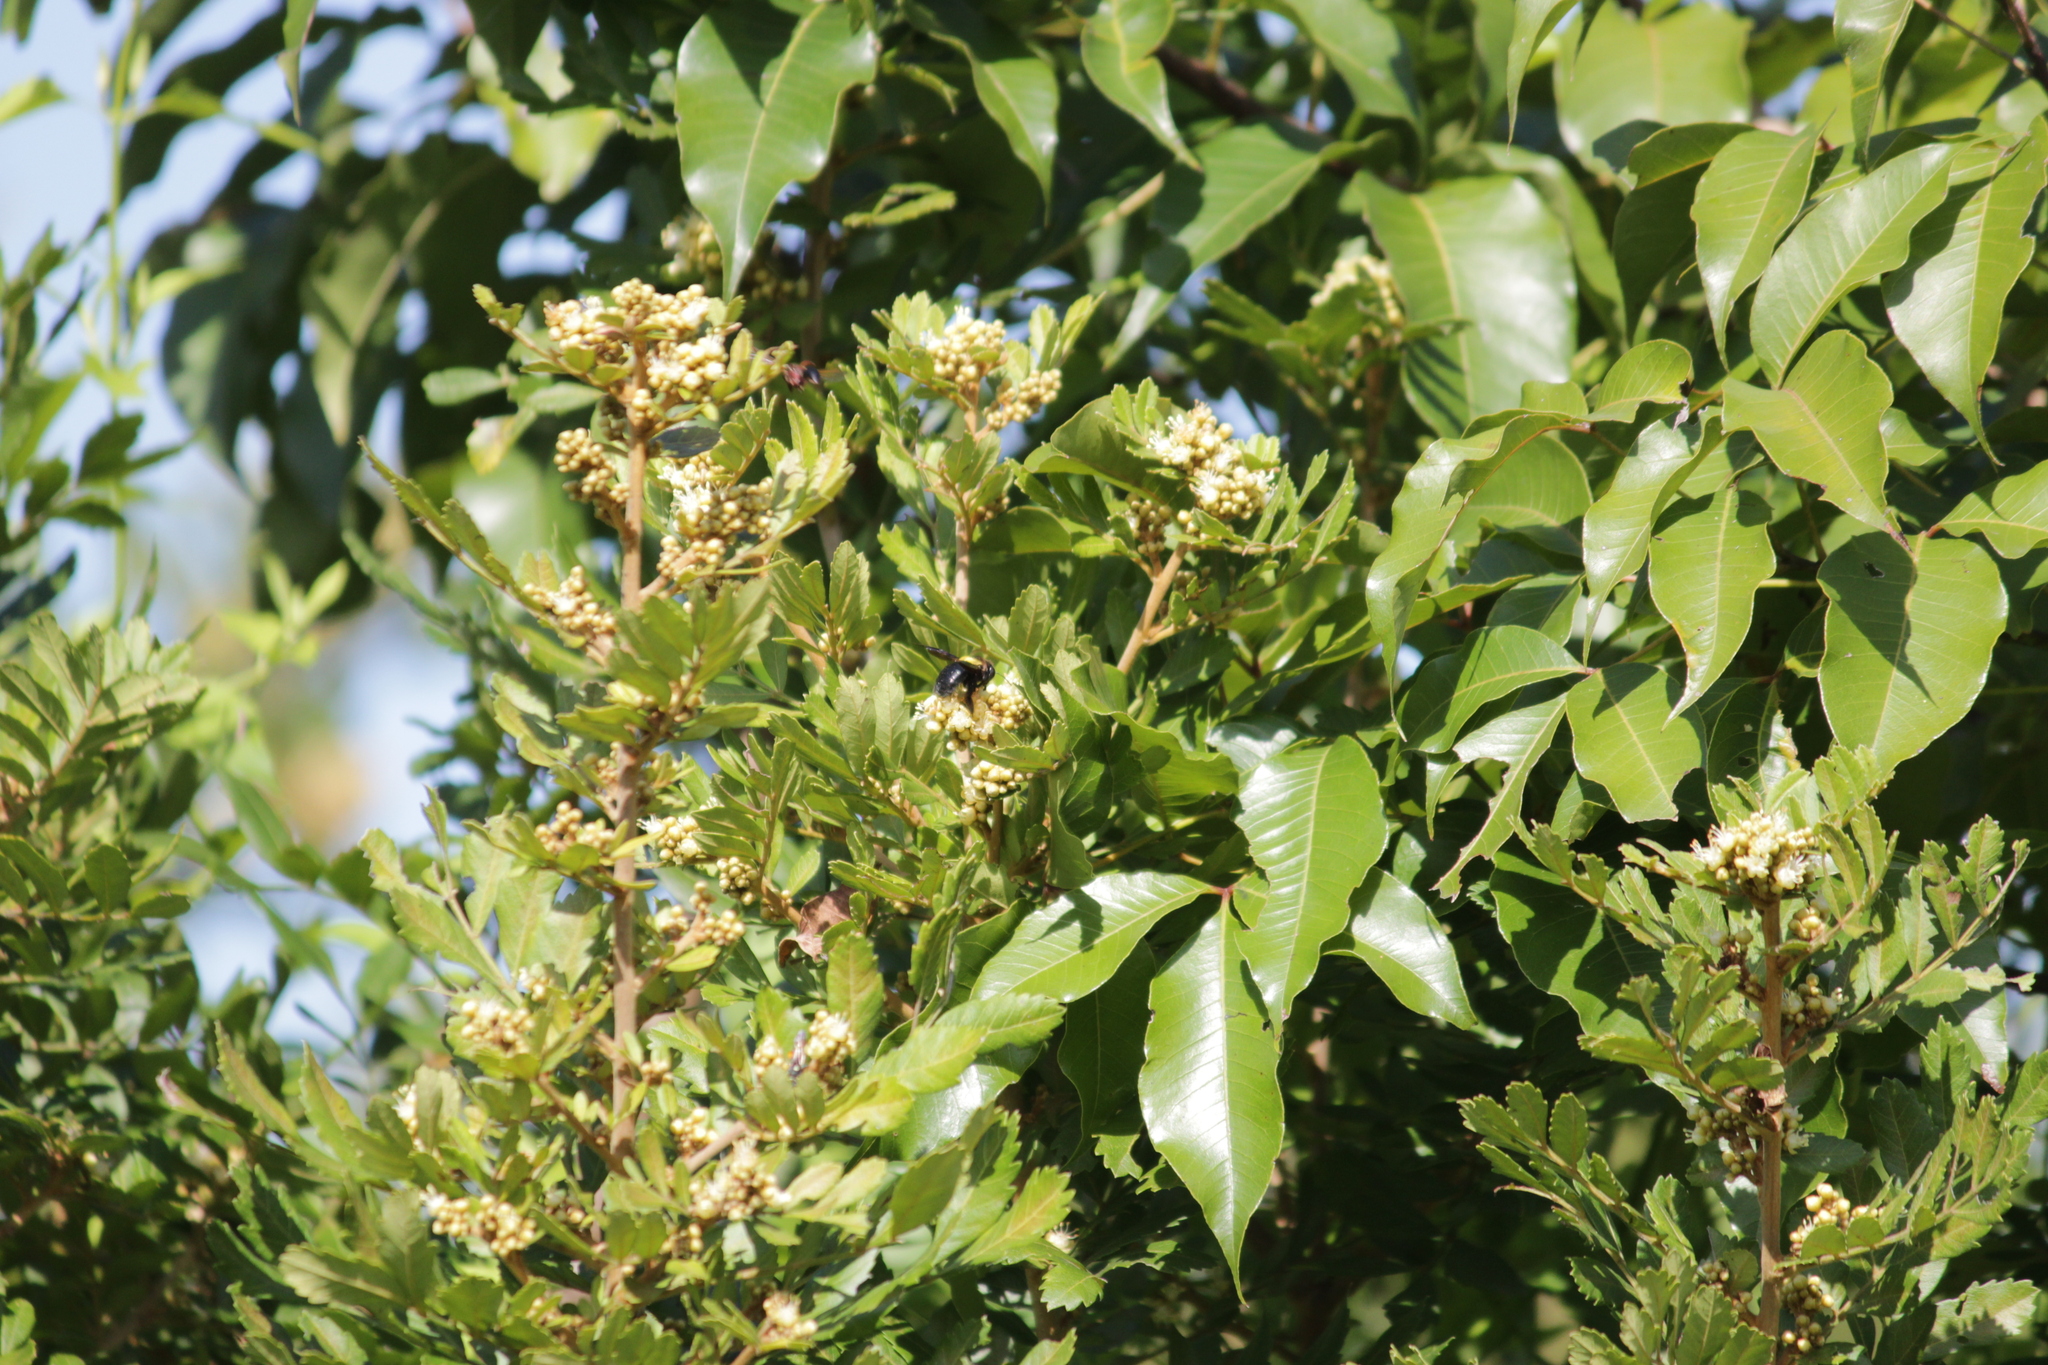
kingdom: Animalia
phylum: Arthropoda
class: Insecta
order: Hymenoptera
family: Apidae
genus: Xylocopa
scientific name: Xylocopa flavicollis
